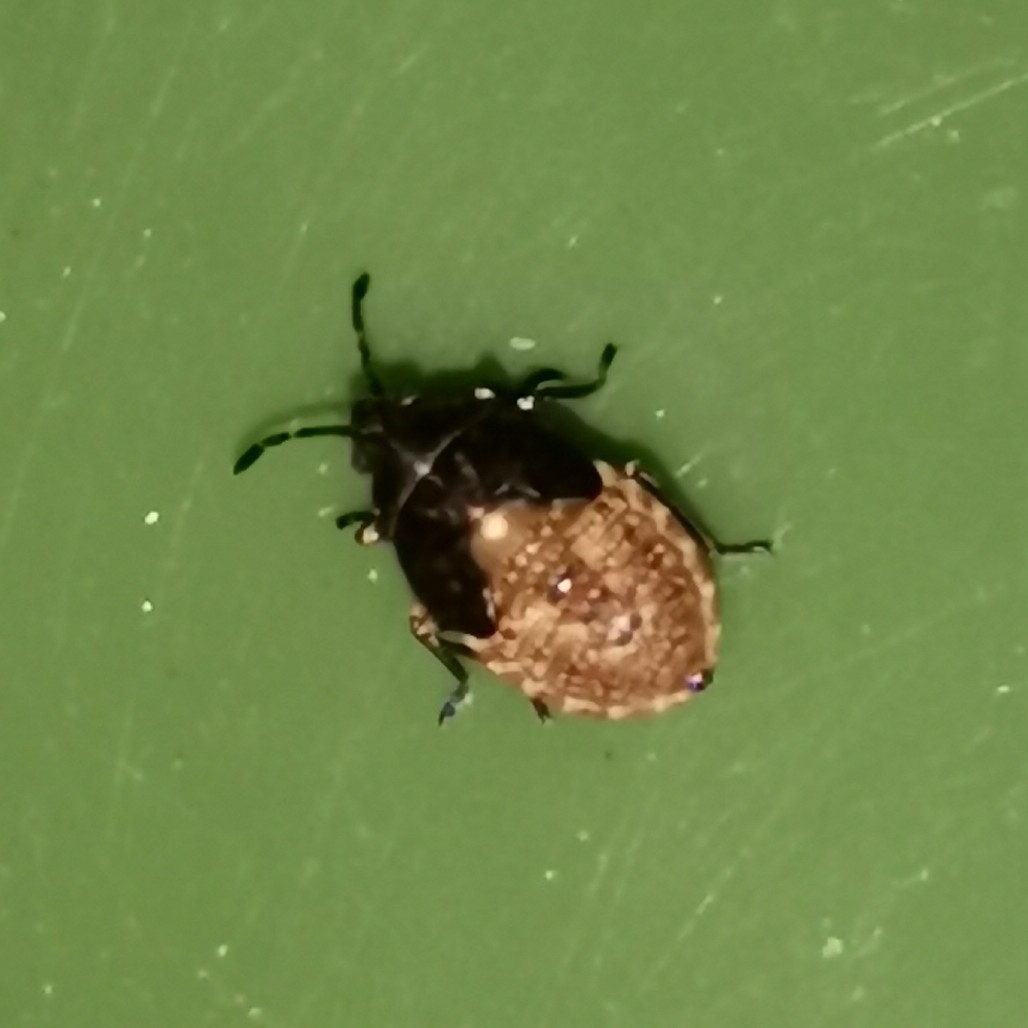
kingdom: Animalia
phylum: Arthropoda
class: Insecta
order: Hemiptera
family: Lygaeidae
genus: Kleidocerys
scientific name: Kleidocerys resedae
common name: Birch catkin bug
